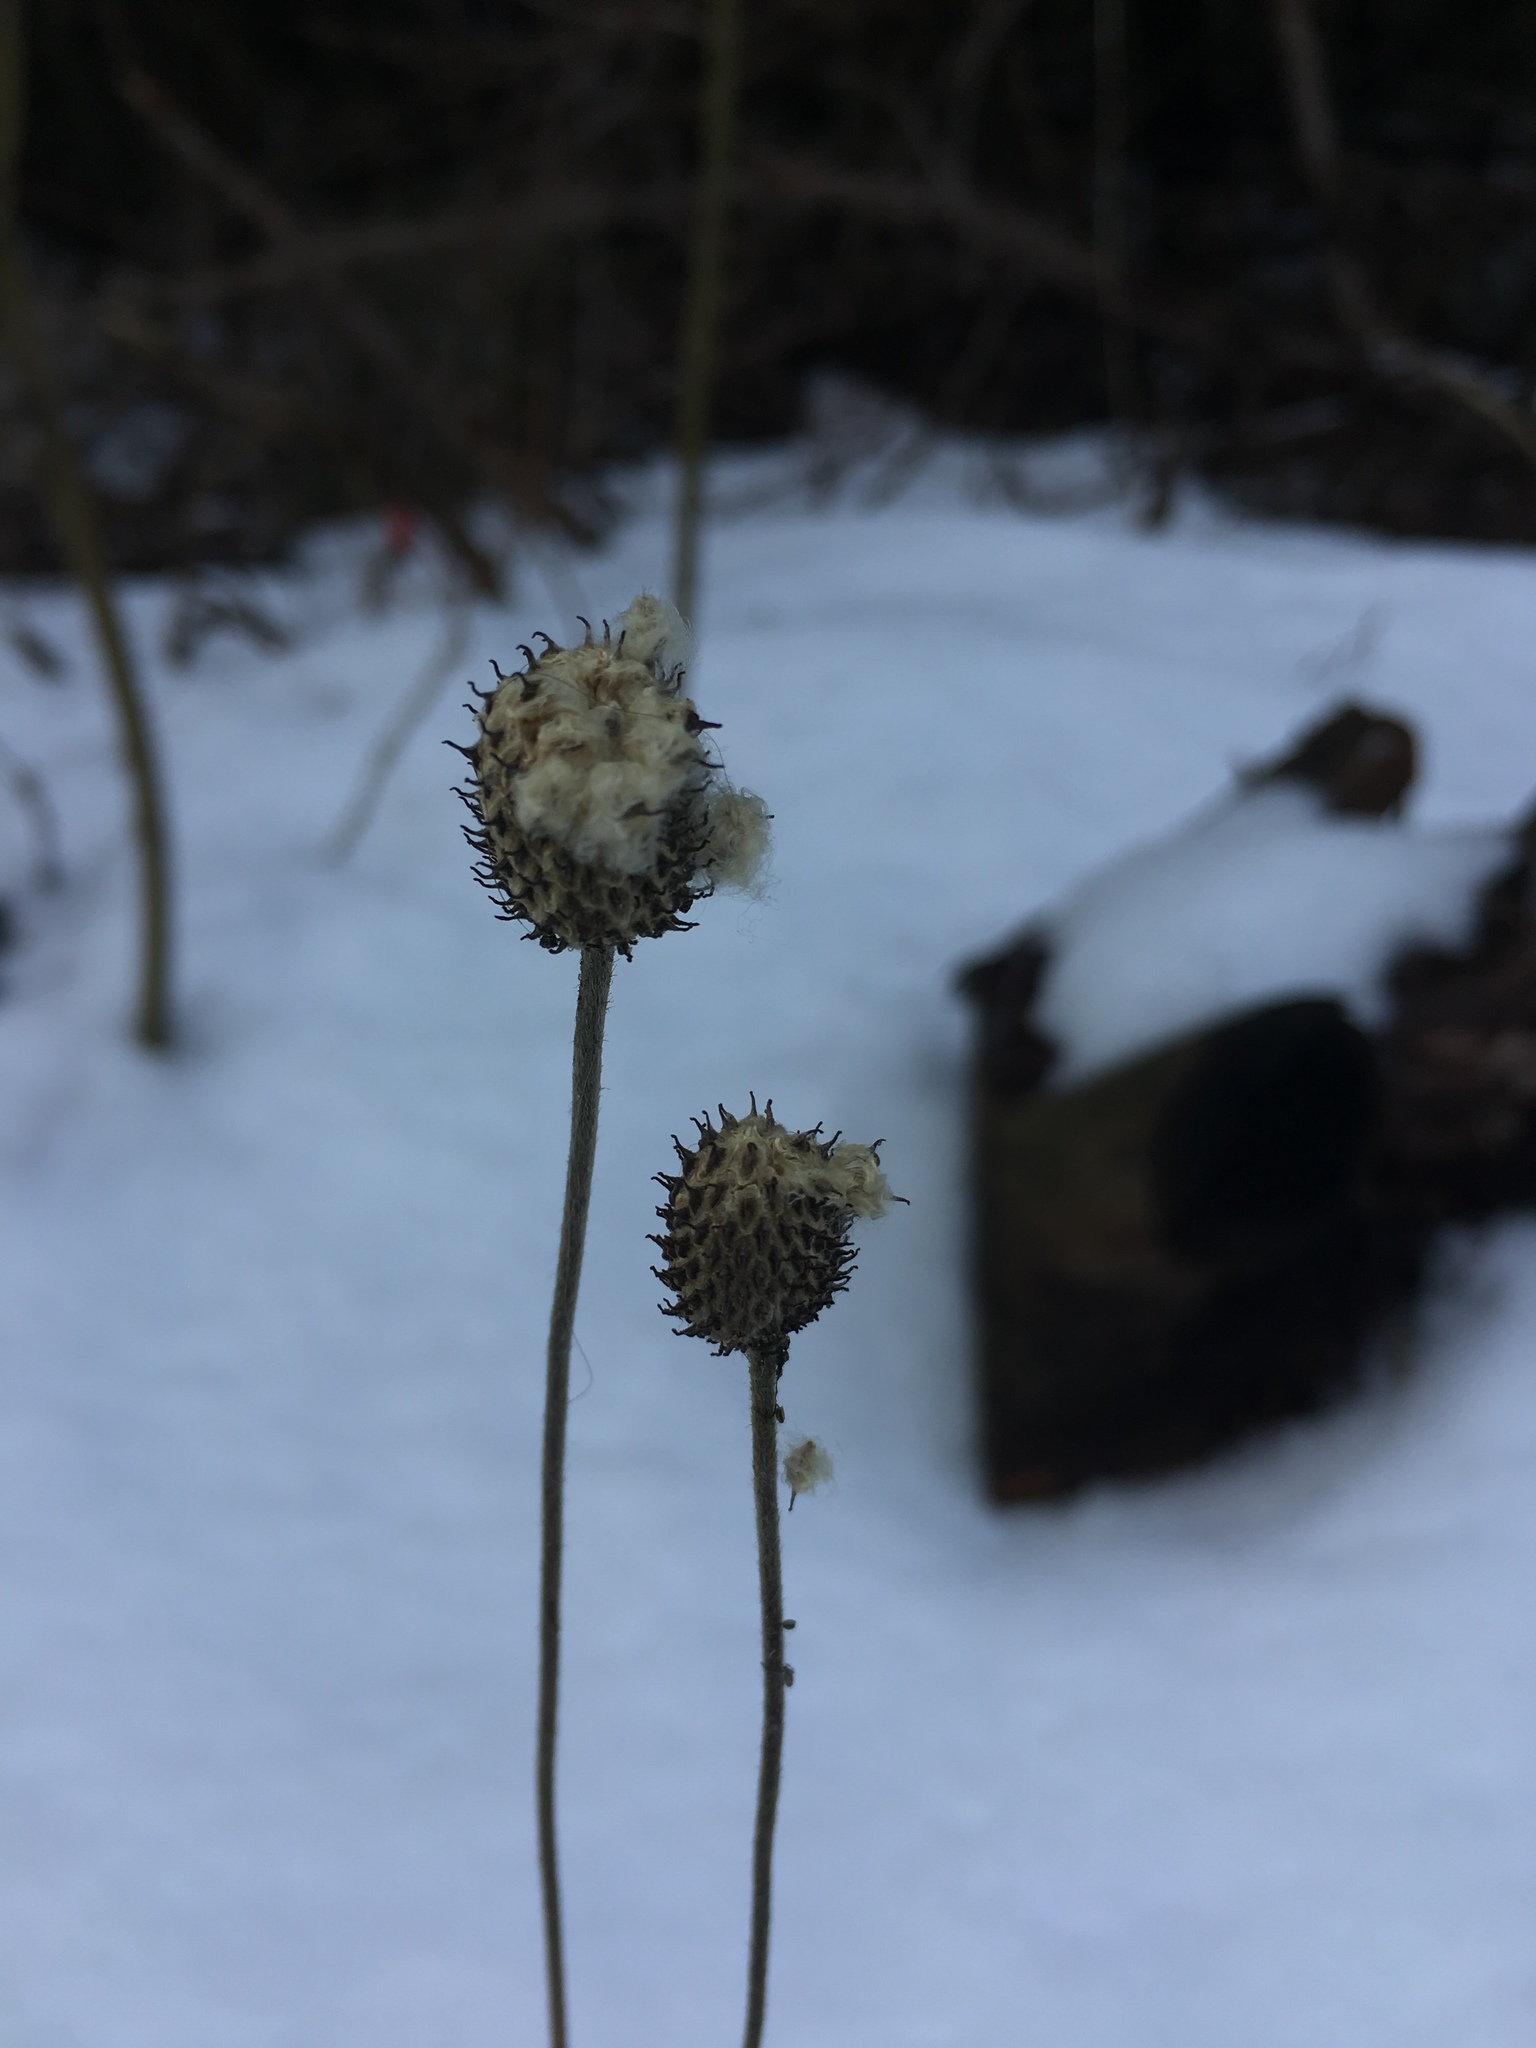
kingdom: Plantae
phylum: Tracheophyta
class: Magnoliopsida
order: Ranunculales
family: Ranunculaceae
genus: Anemone
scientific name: Anemone virginiana
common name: Tall anemone
